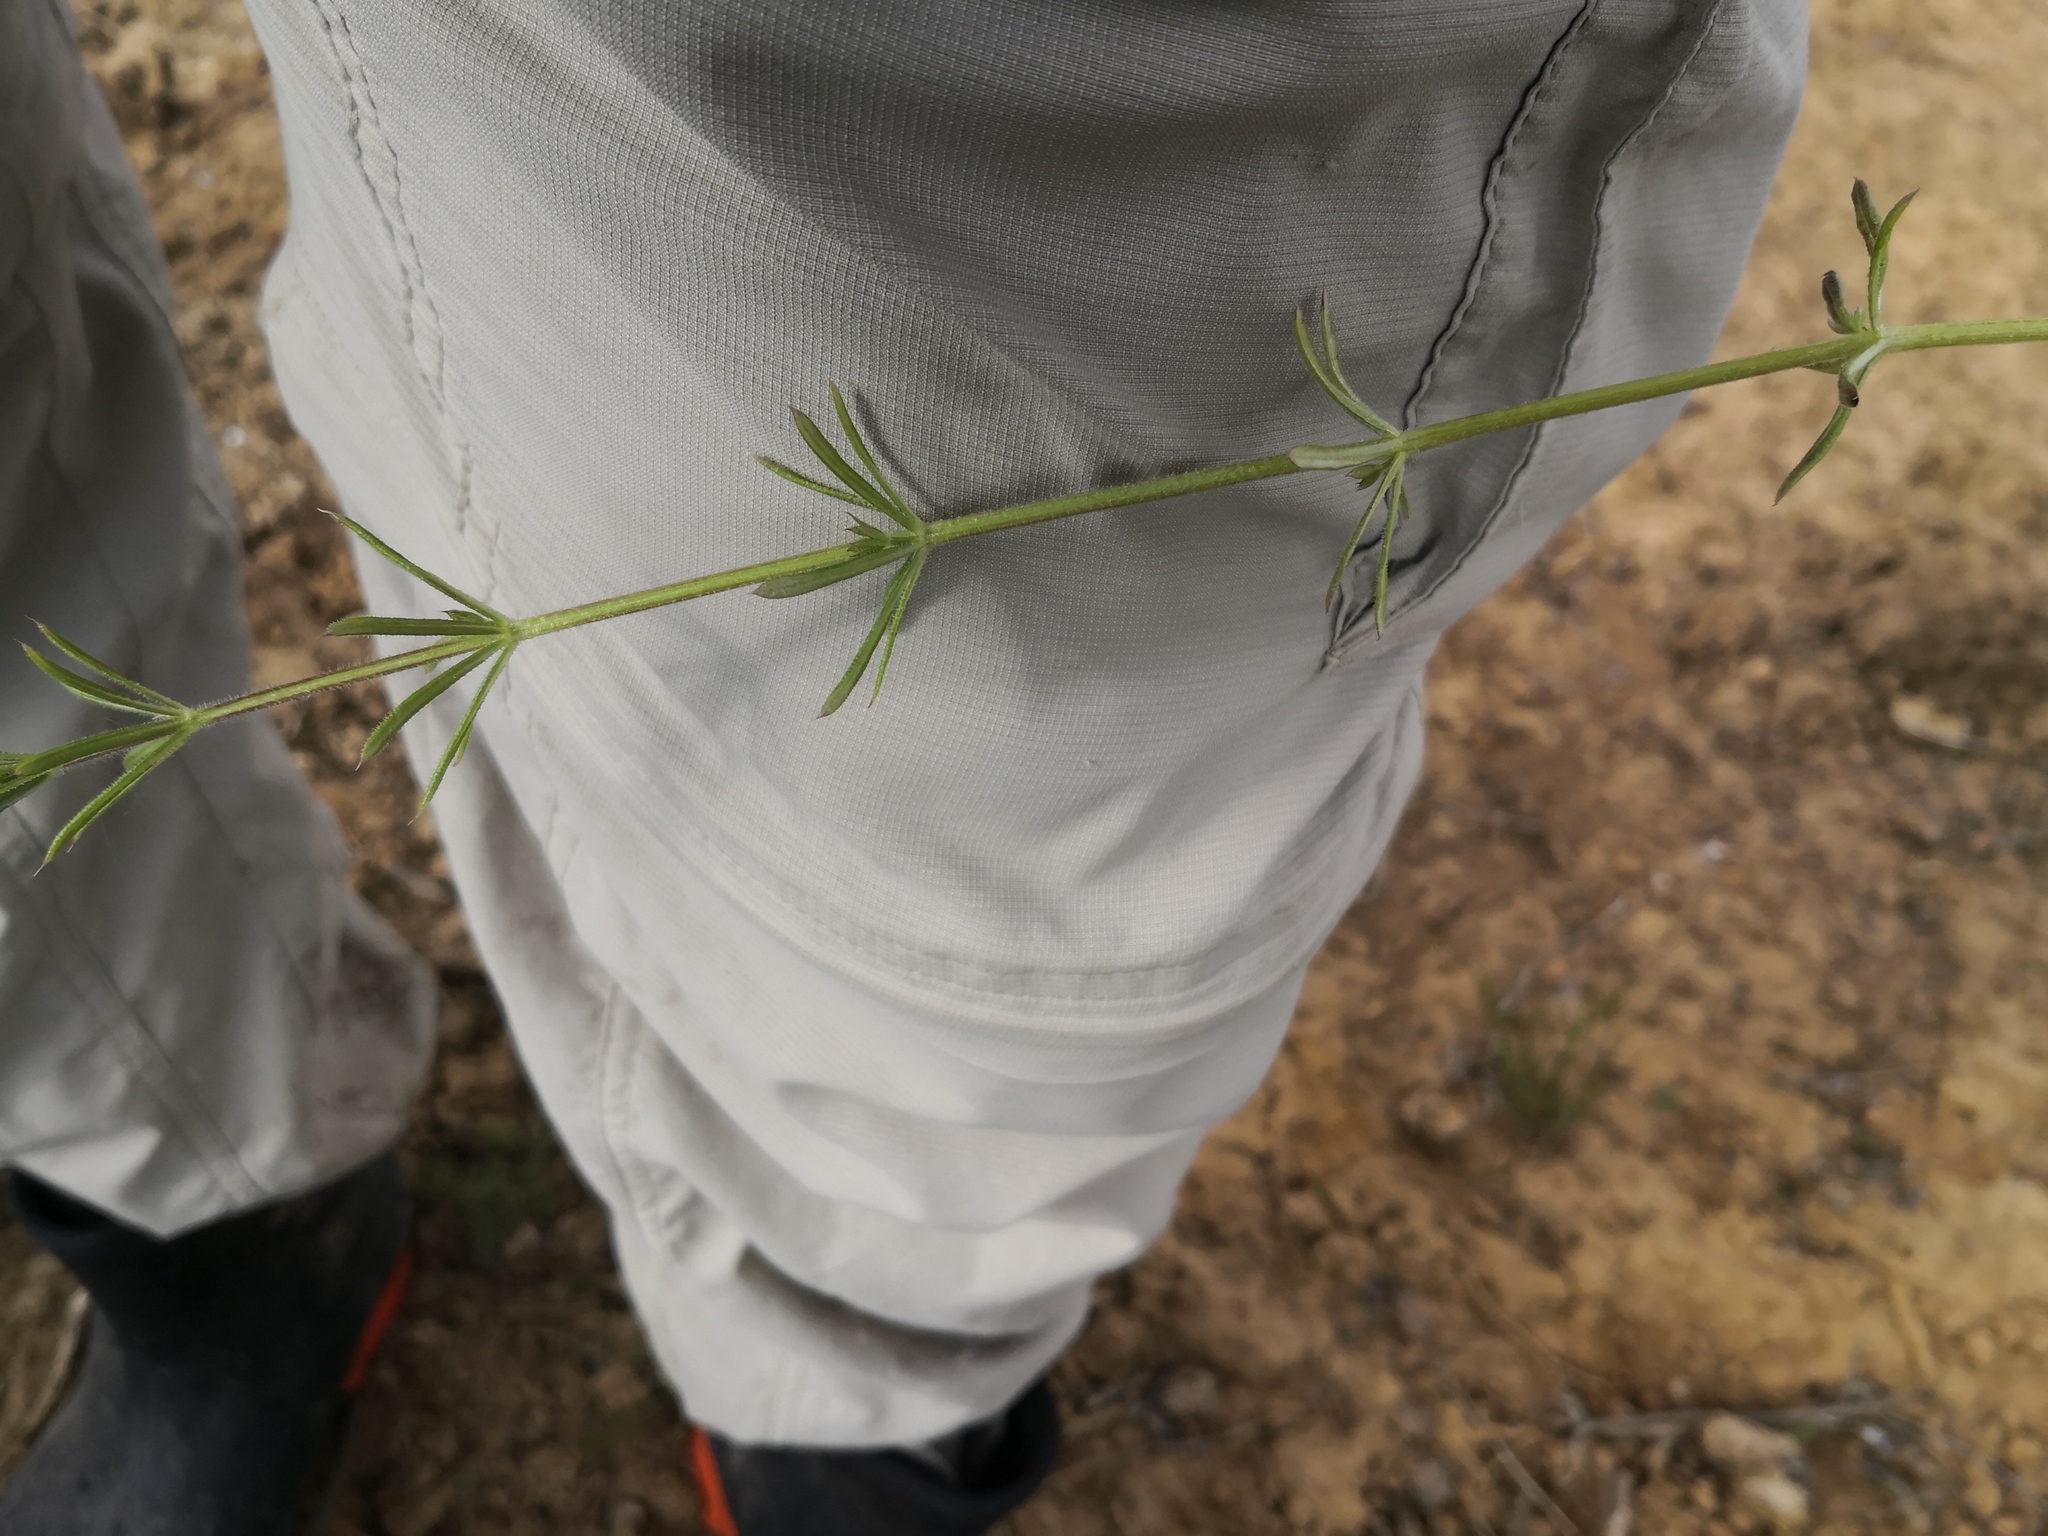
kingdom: Plantae
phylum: Tracheophyta
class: Magnoliopsida
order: Gentianales
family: Rubiaceae
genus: Galium
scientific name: Galium aparine
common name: Cleavers
